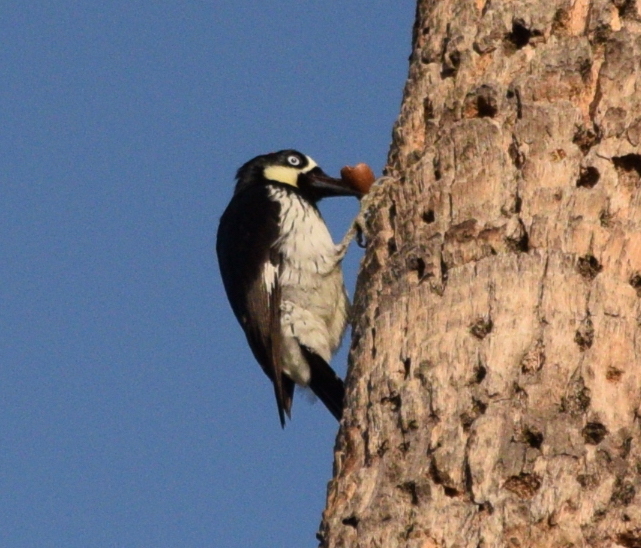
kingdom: Animalia
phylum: Chordata
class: Aves
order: Piciformes
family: Picidae
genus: Melanerpes
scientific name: Melanerpes formicivorus
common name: Acorn woodpecker
